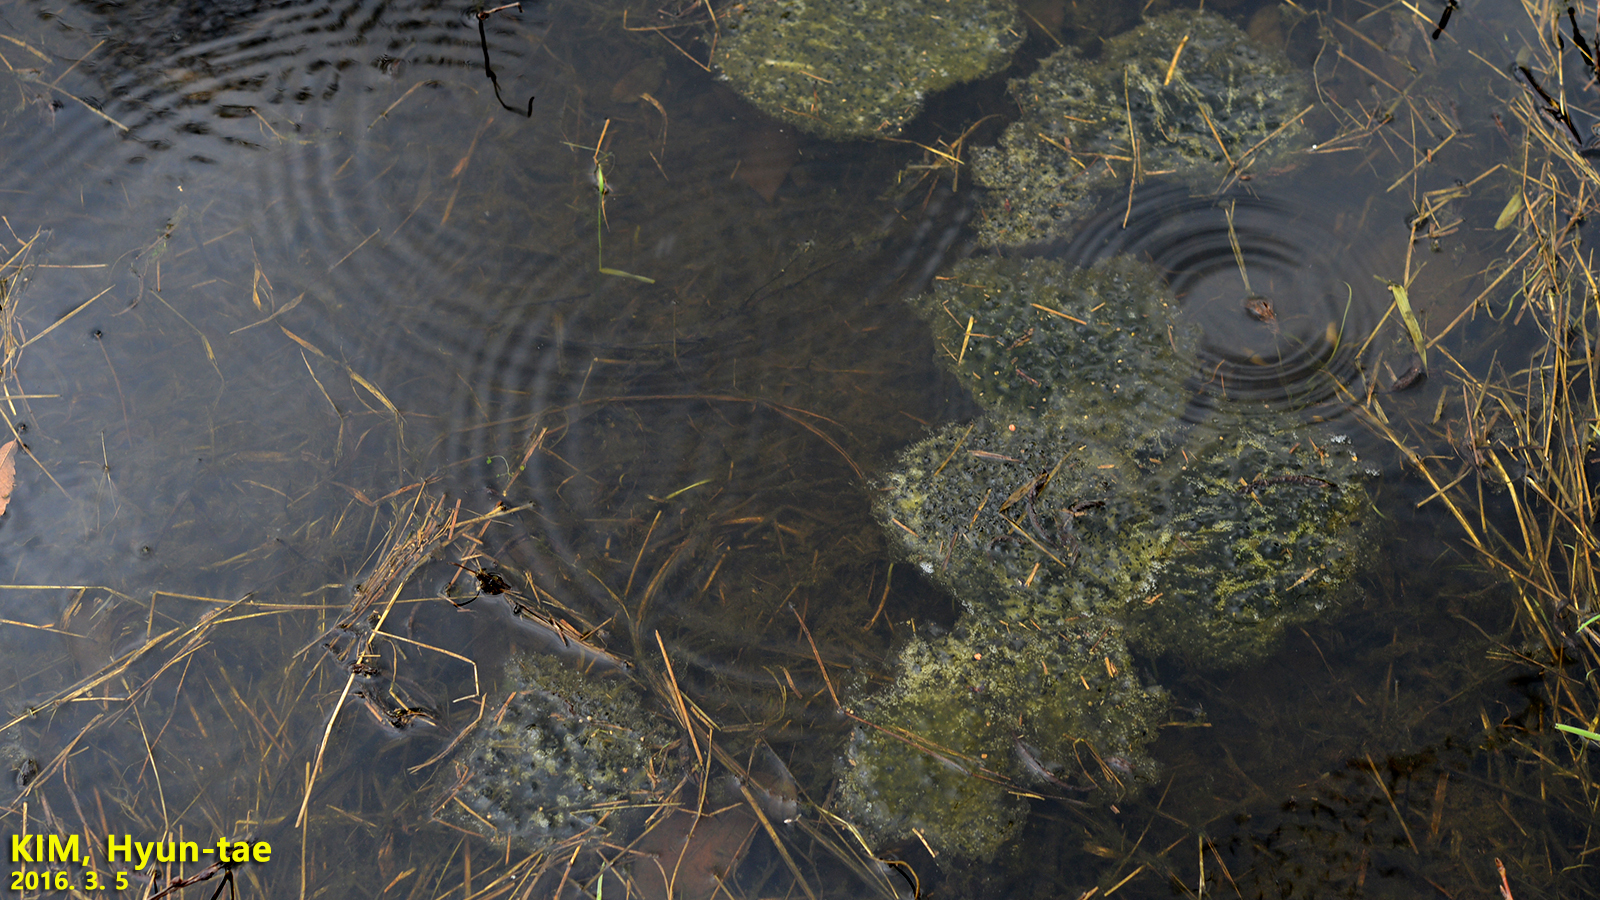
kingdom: Animalia
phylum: Chordata
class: Amphibia
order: Anura
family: Ranidae
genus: Rana
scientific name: Rana uenoi
